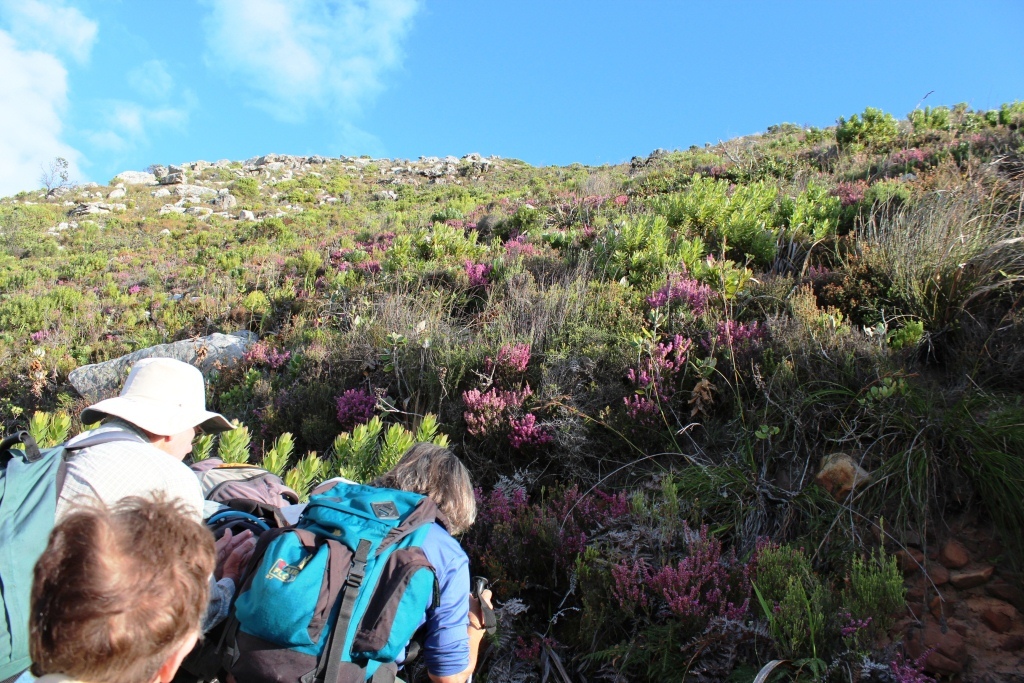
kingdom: Plantae
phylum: Tracheophyta
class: Magnoliopsida
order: Ericales
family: Ericaceae
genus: Erica
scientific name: Erica nudiflora
